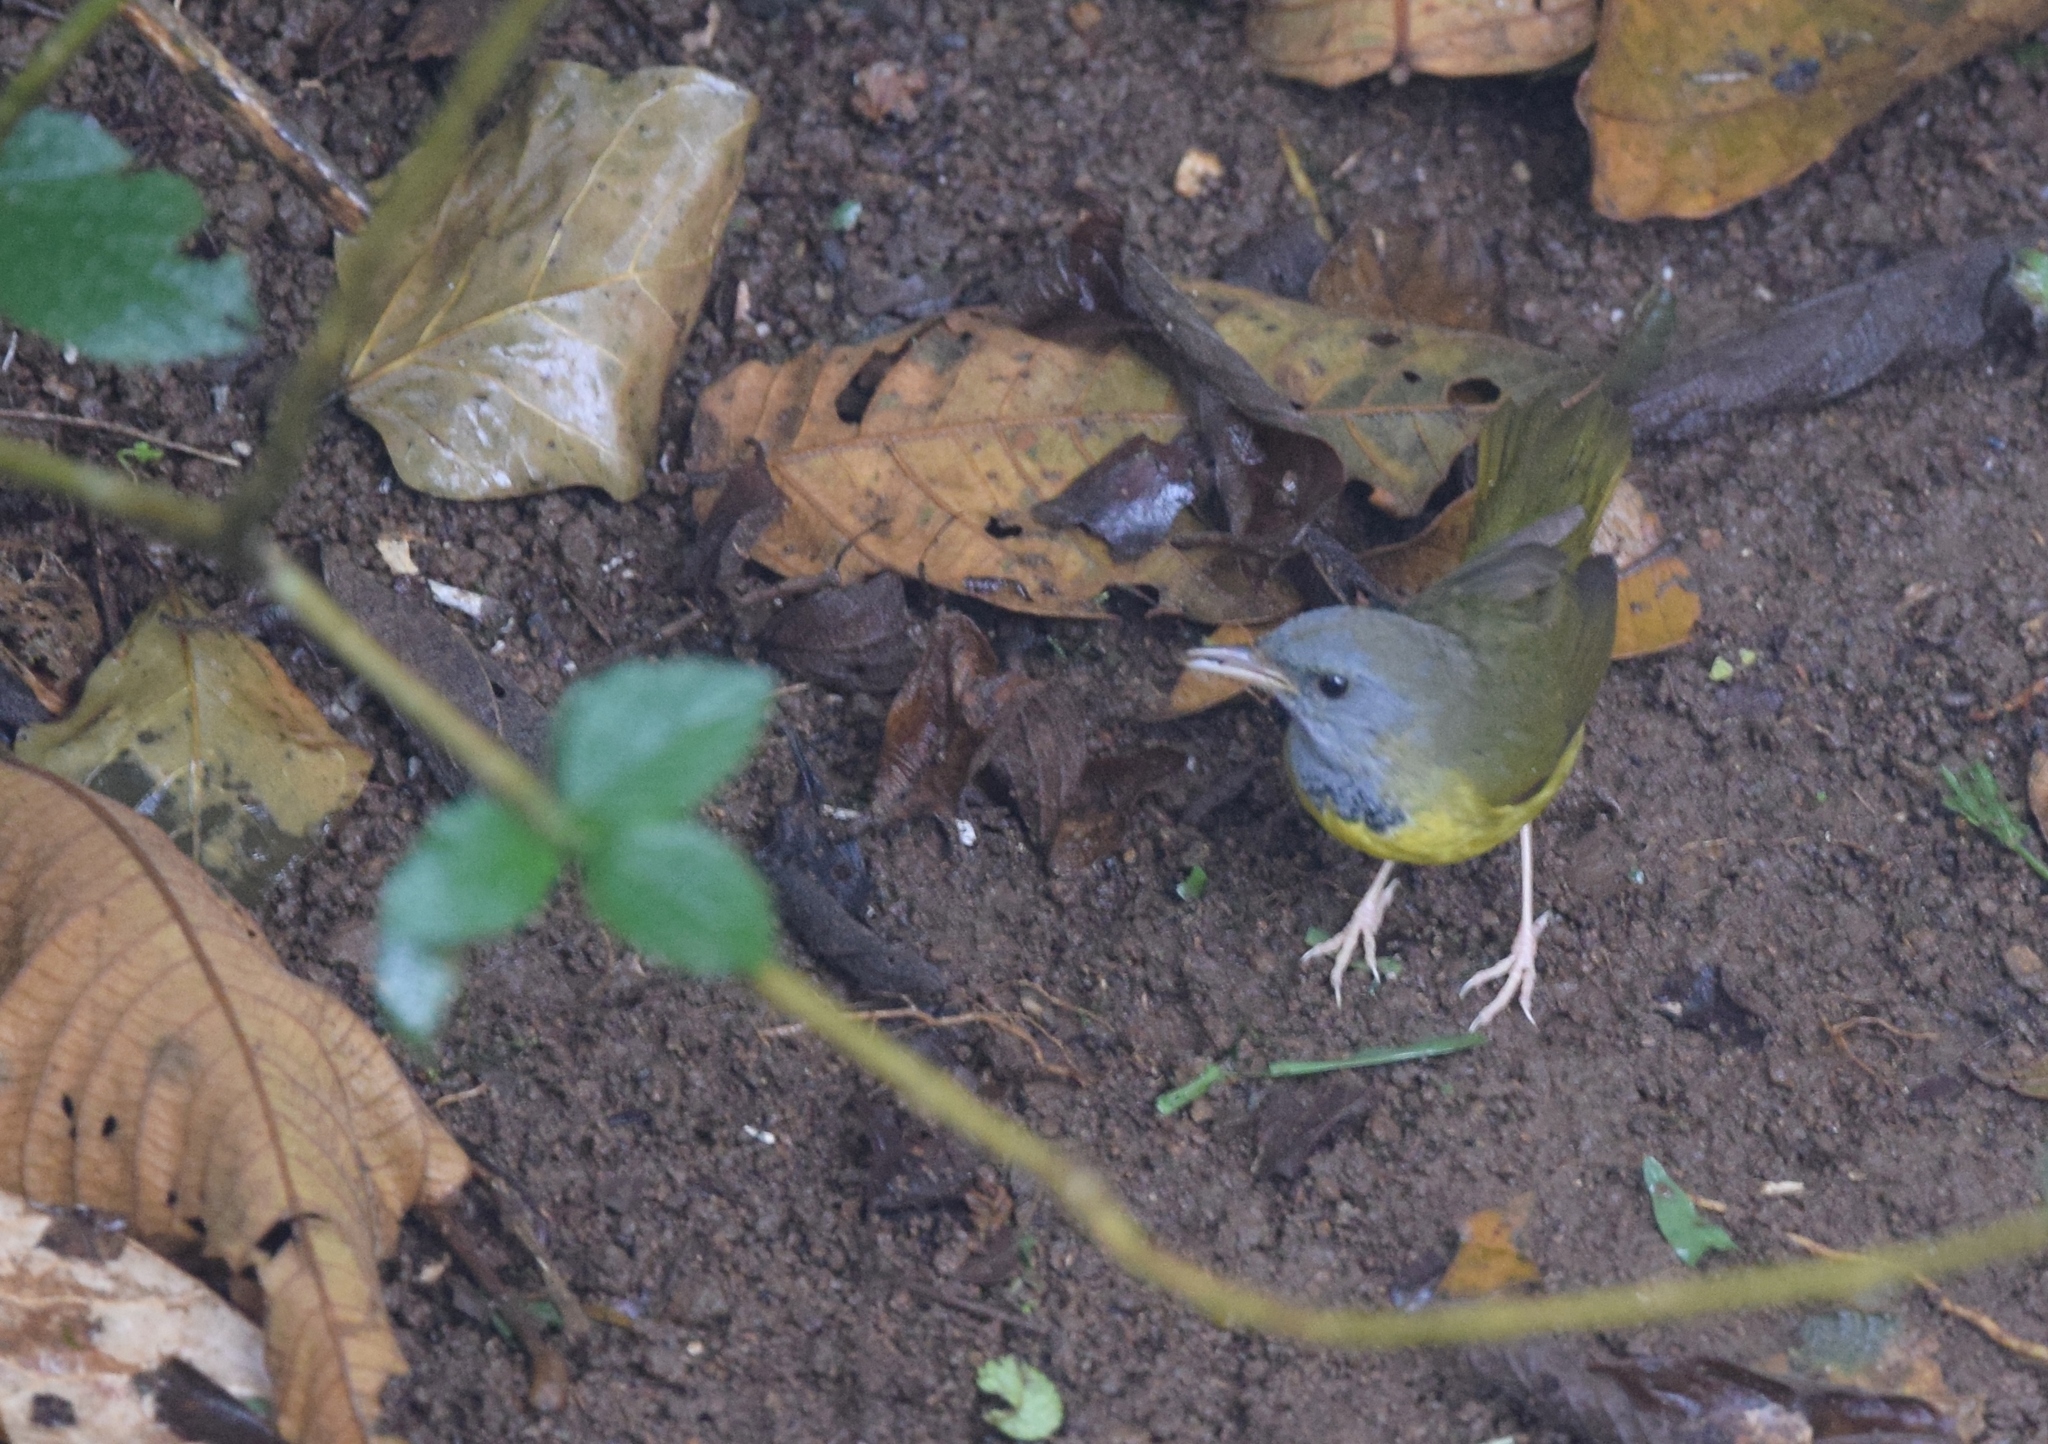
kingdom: Animalia
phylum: Chordata
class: Aves
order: Passeriformes
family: Parulidae
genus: Geothlypis
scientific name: Geothlypis philadelphia
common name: Mourning warbler
